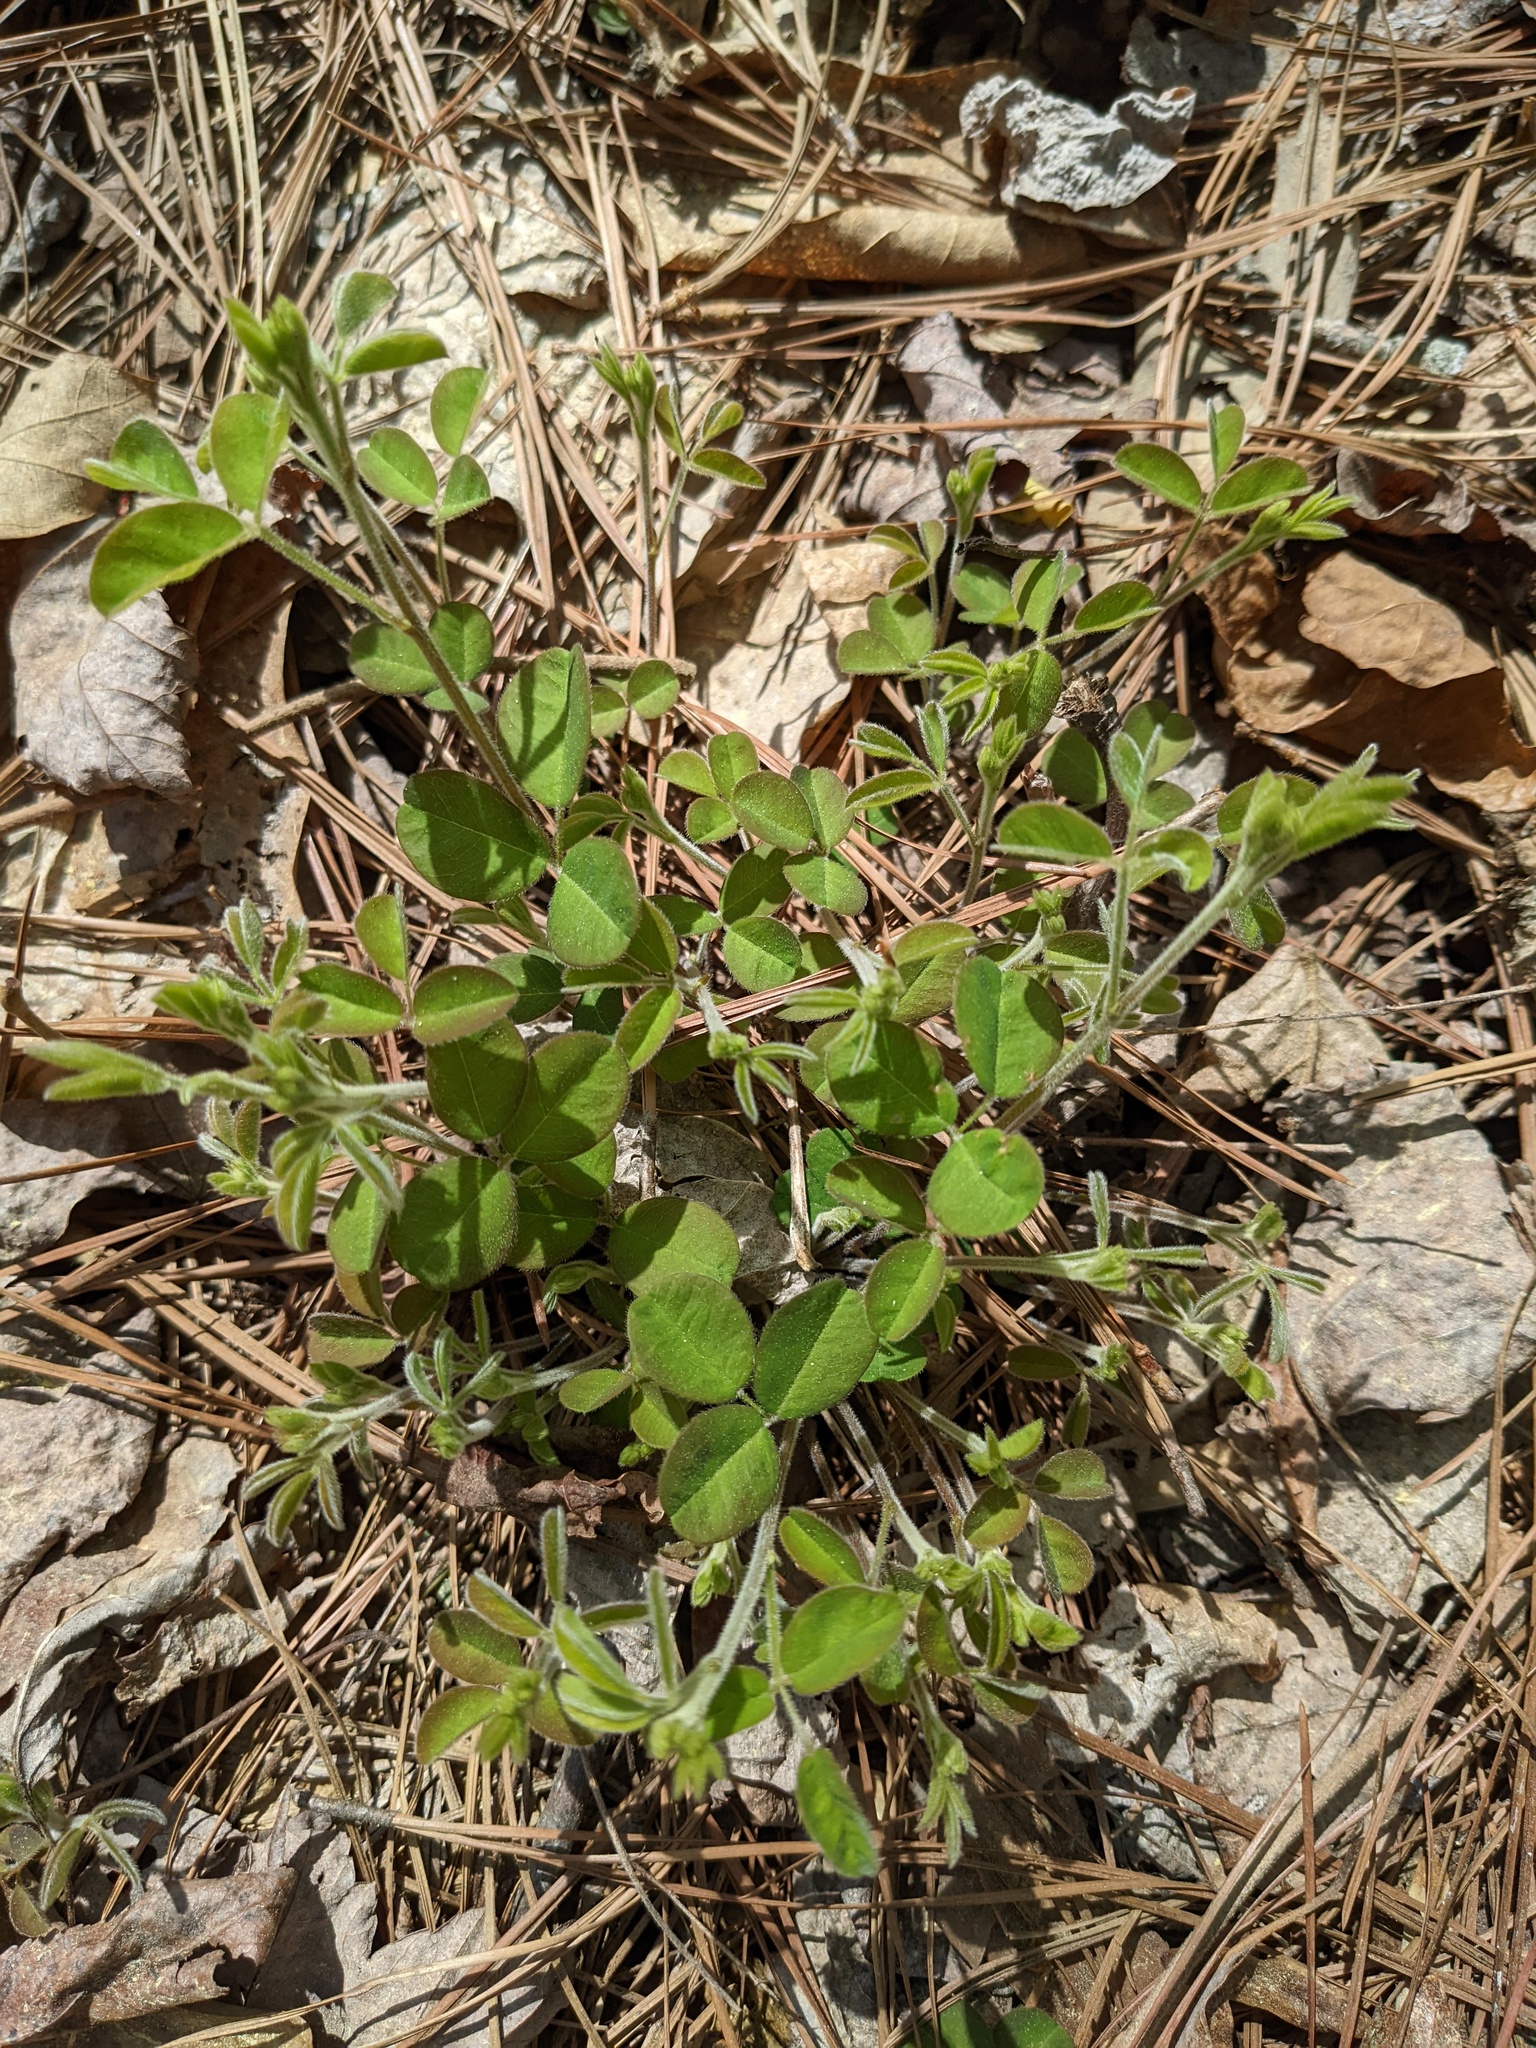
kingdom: Plantae
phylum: Tracheophyta
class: Magnoliopsida
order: Fabales
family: Fabaceae
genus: Lespedeza
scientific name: Lespedeza procumbens
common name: Downy trailing bush-clover
